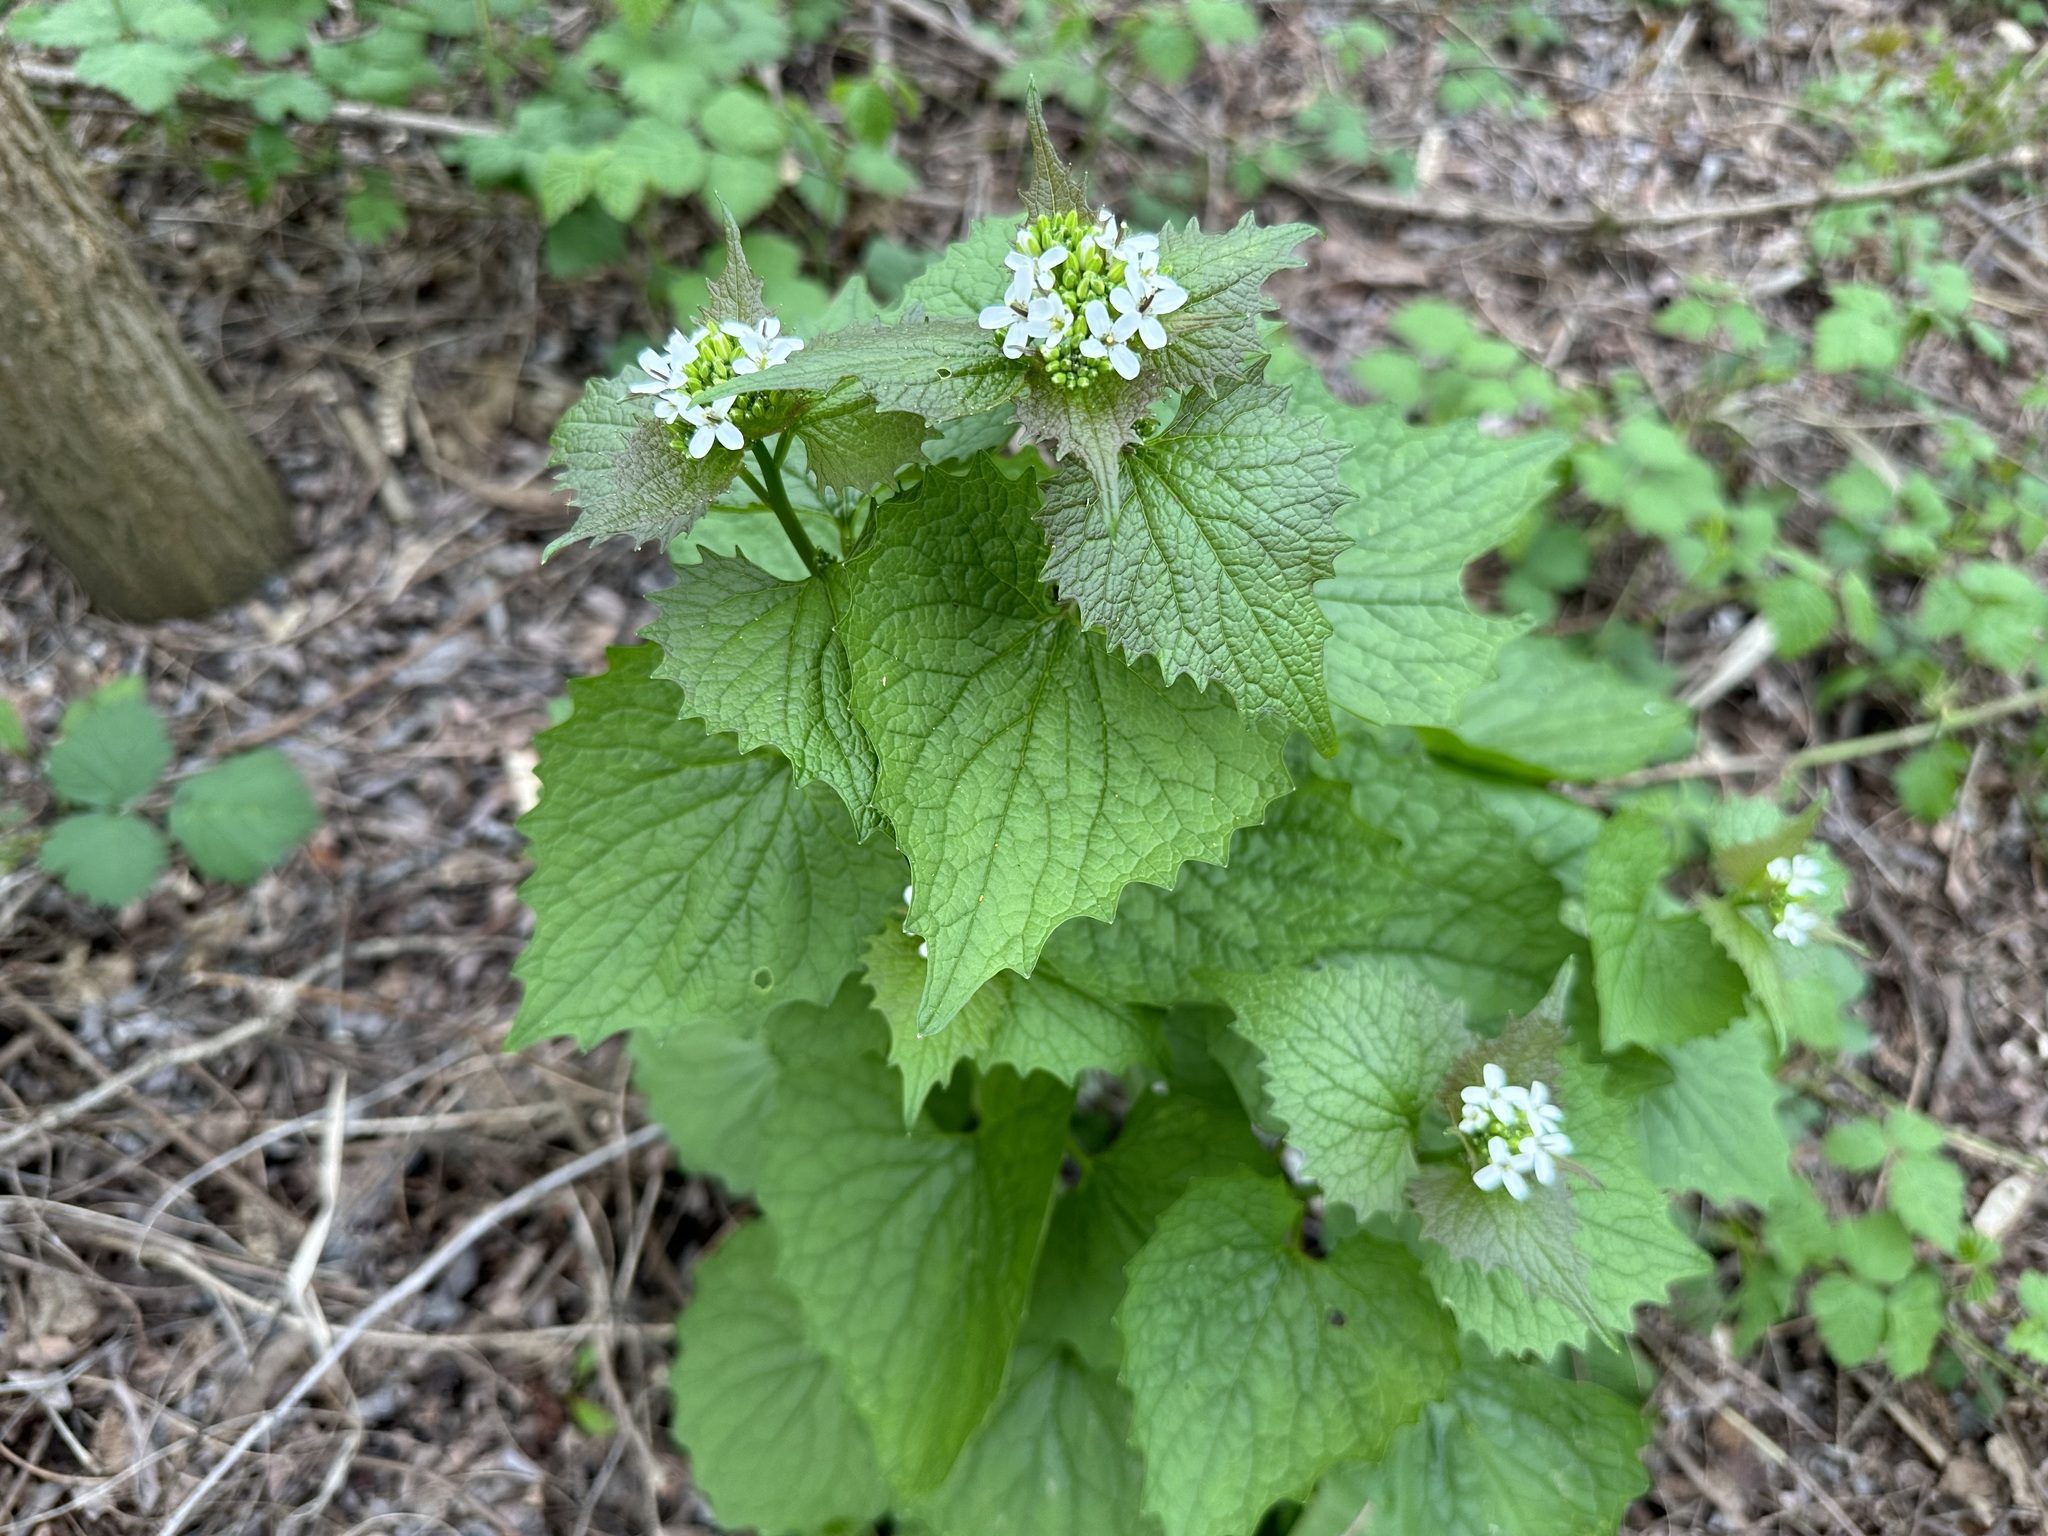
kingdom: Plantae
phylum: Tracheophyta
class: Magnoliopsida
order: Brassicales
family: Brassicaceae
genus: Alliaria
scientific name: Alliaria petiolata
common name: Garlic mustard
